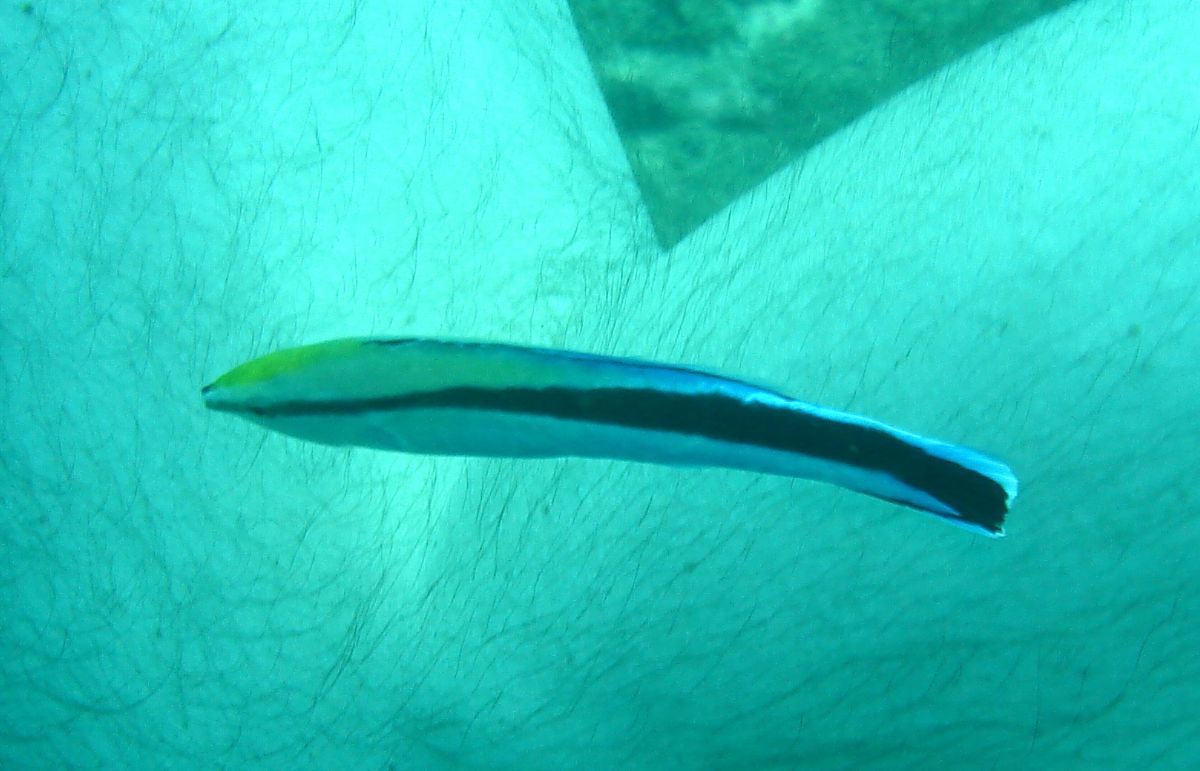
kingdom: Animalia
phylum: Chordata
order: Perciformes
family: Labridae
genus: Labroides
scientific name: Labroides dimidiatus
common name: Blue diesel wrasse
